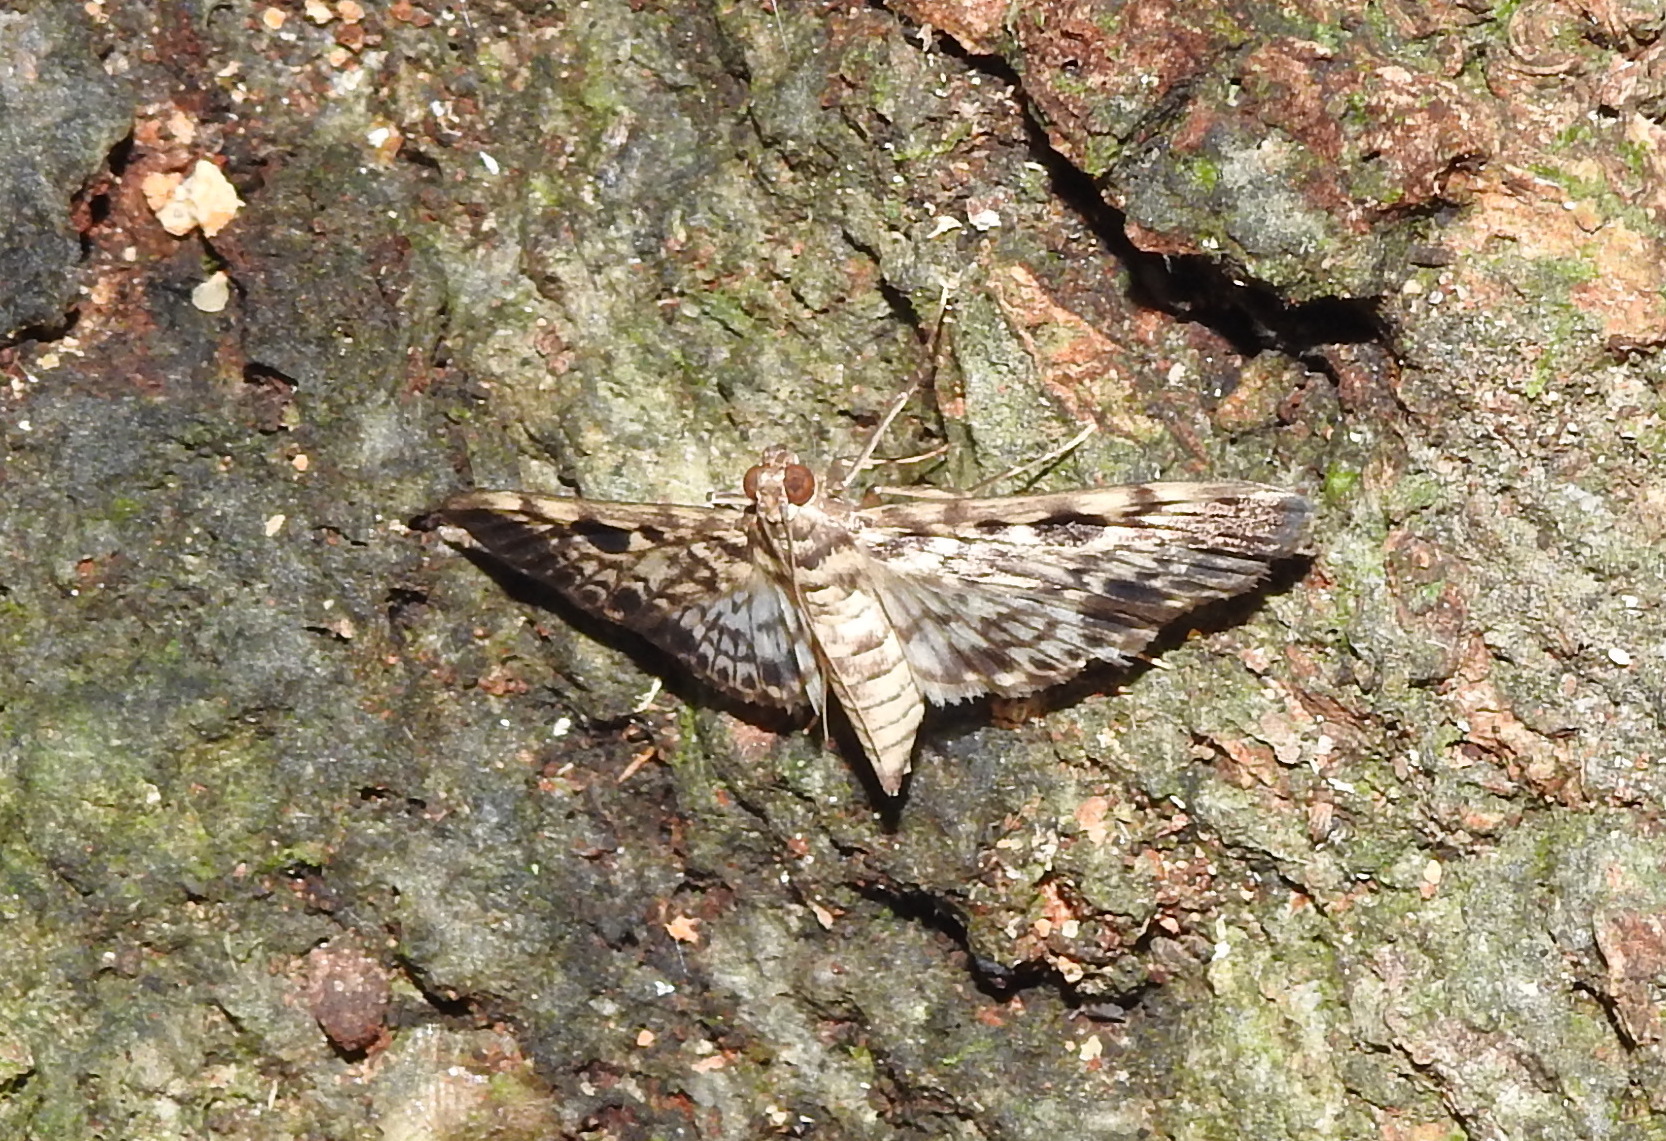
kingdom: Animalia
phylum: Arthropoda
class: Insecta
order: Lepidoptera
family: Crambidae
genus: Rhimphaliodes
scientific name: Rhimphaliodes macrostigma
